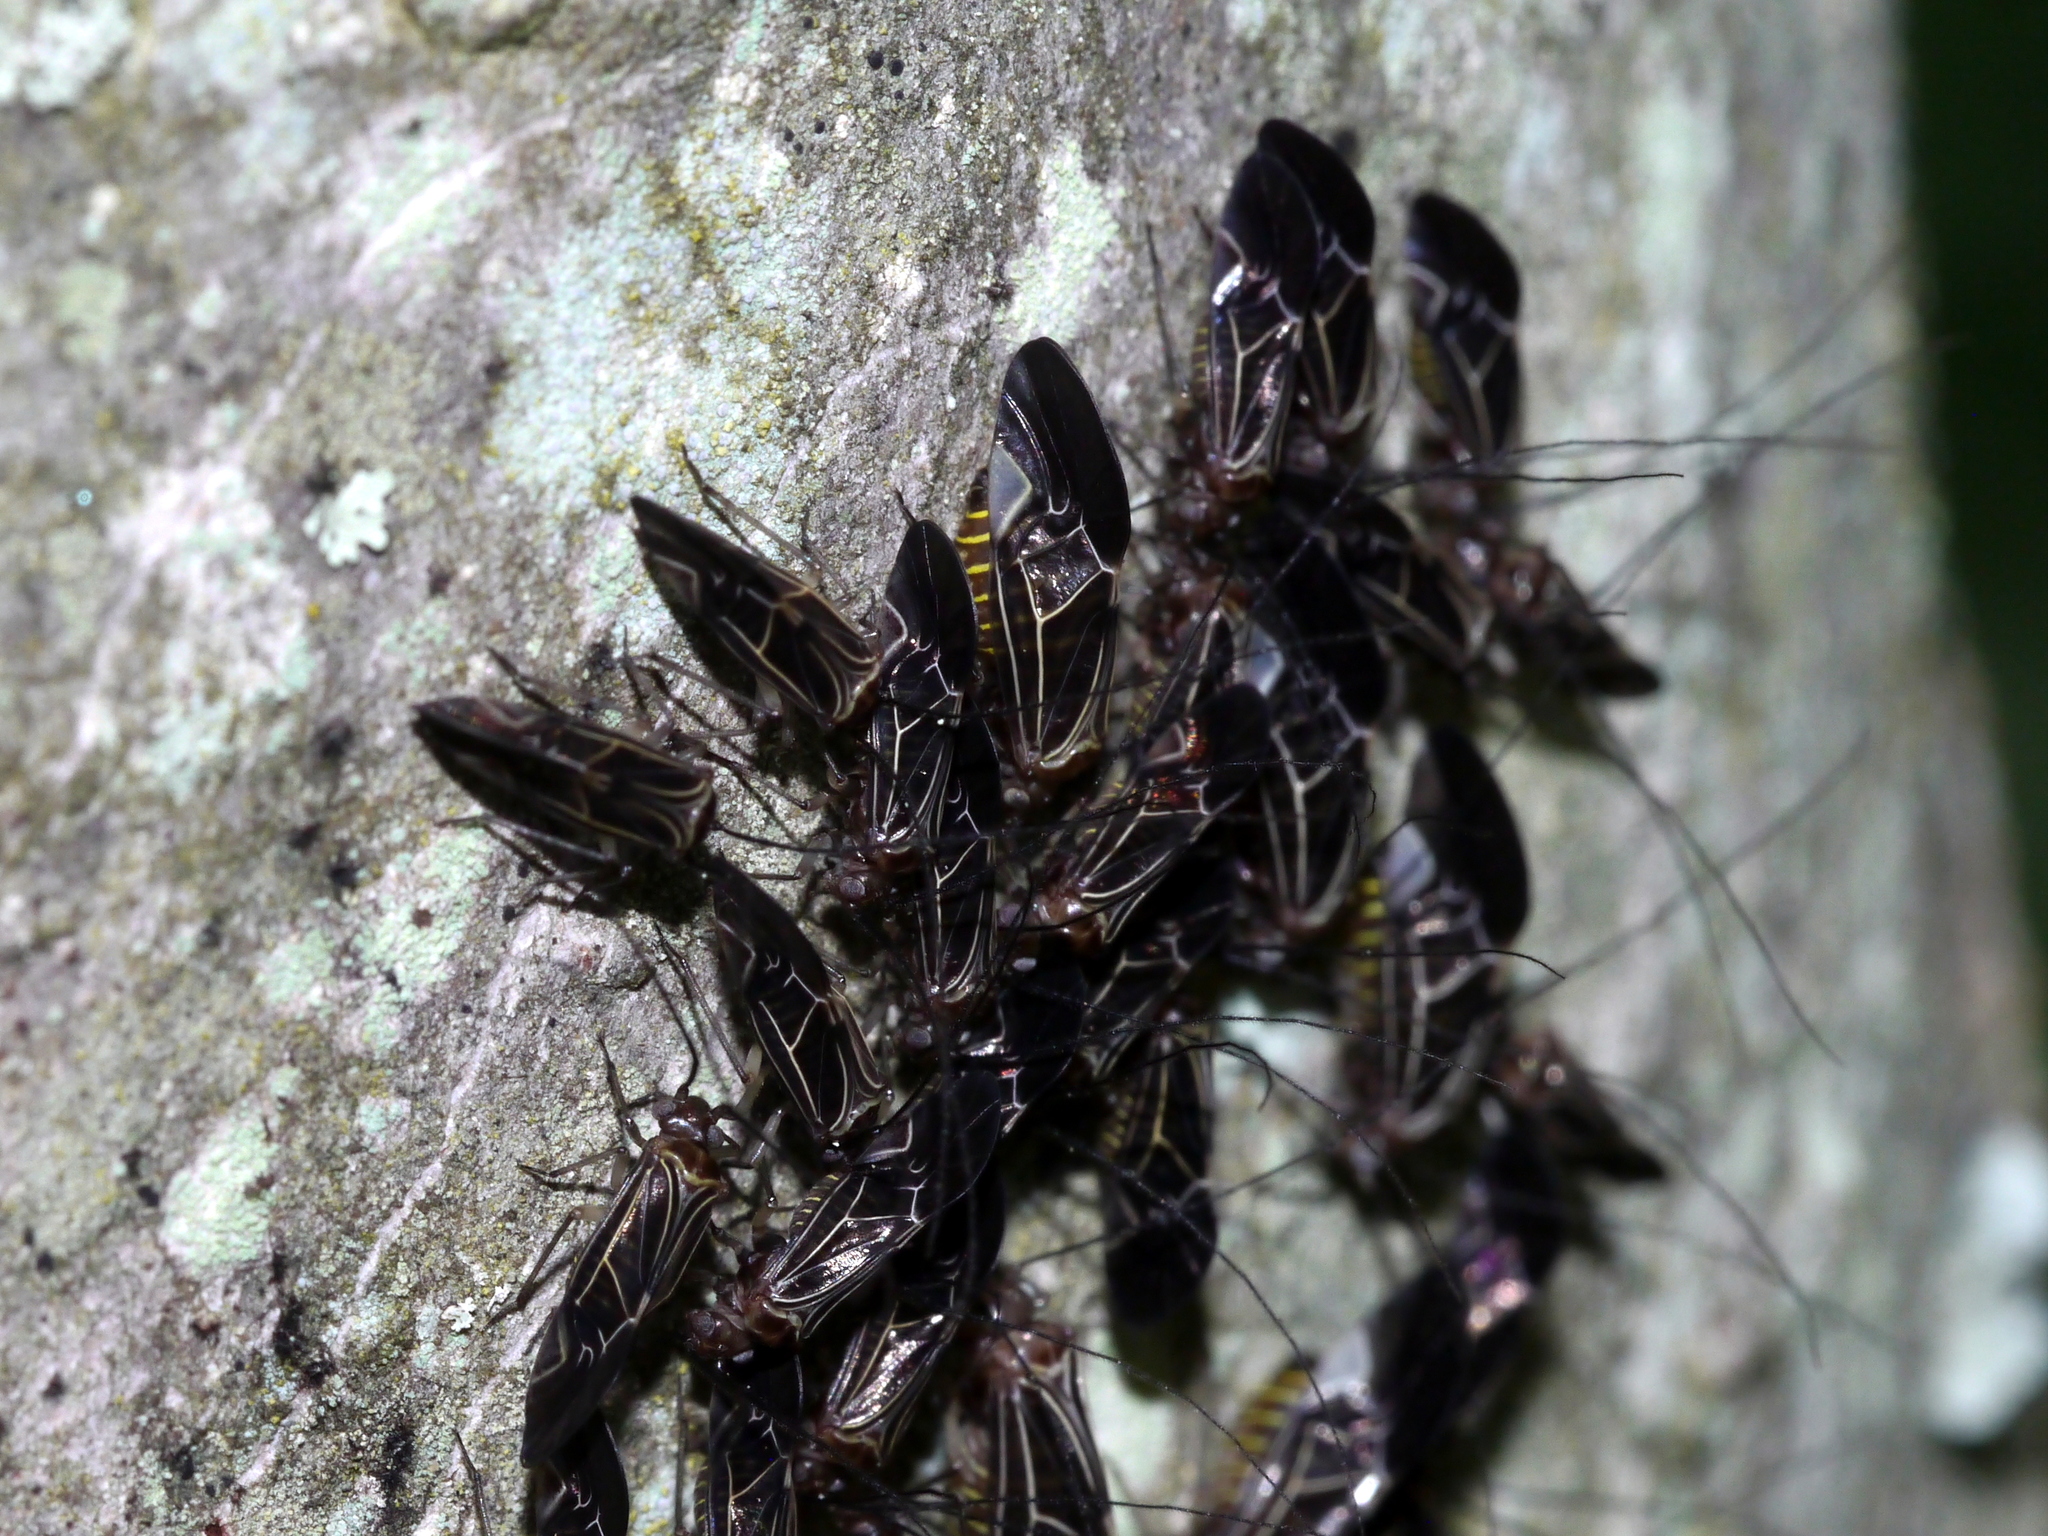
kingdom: Animalia
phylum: Arthropoda
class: Insecta
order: Psocodea
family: Psocidae
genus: Cerastipsocus
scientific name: Cerastipsocus venosus
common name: Tree cattle
